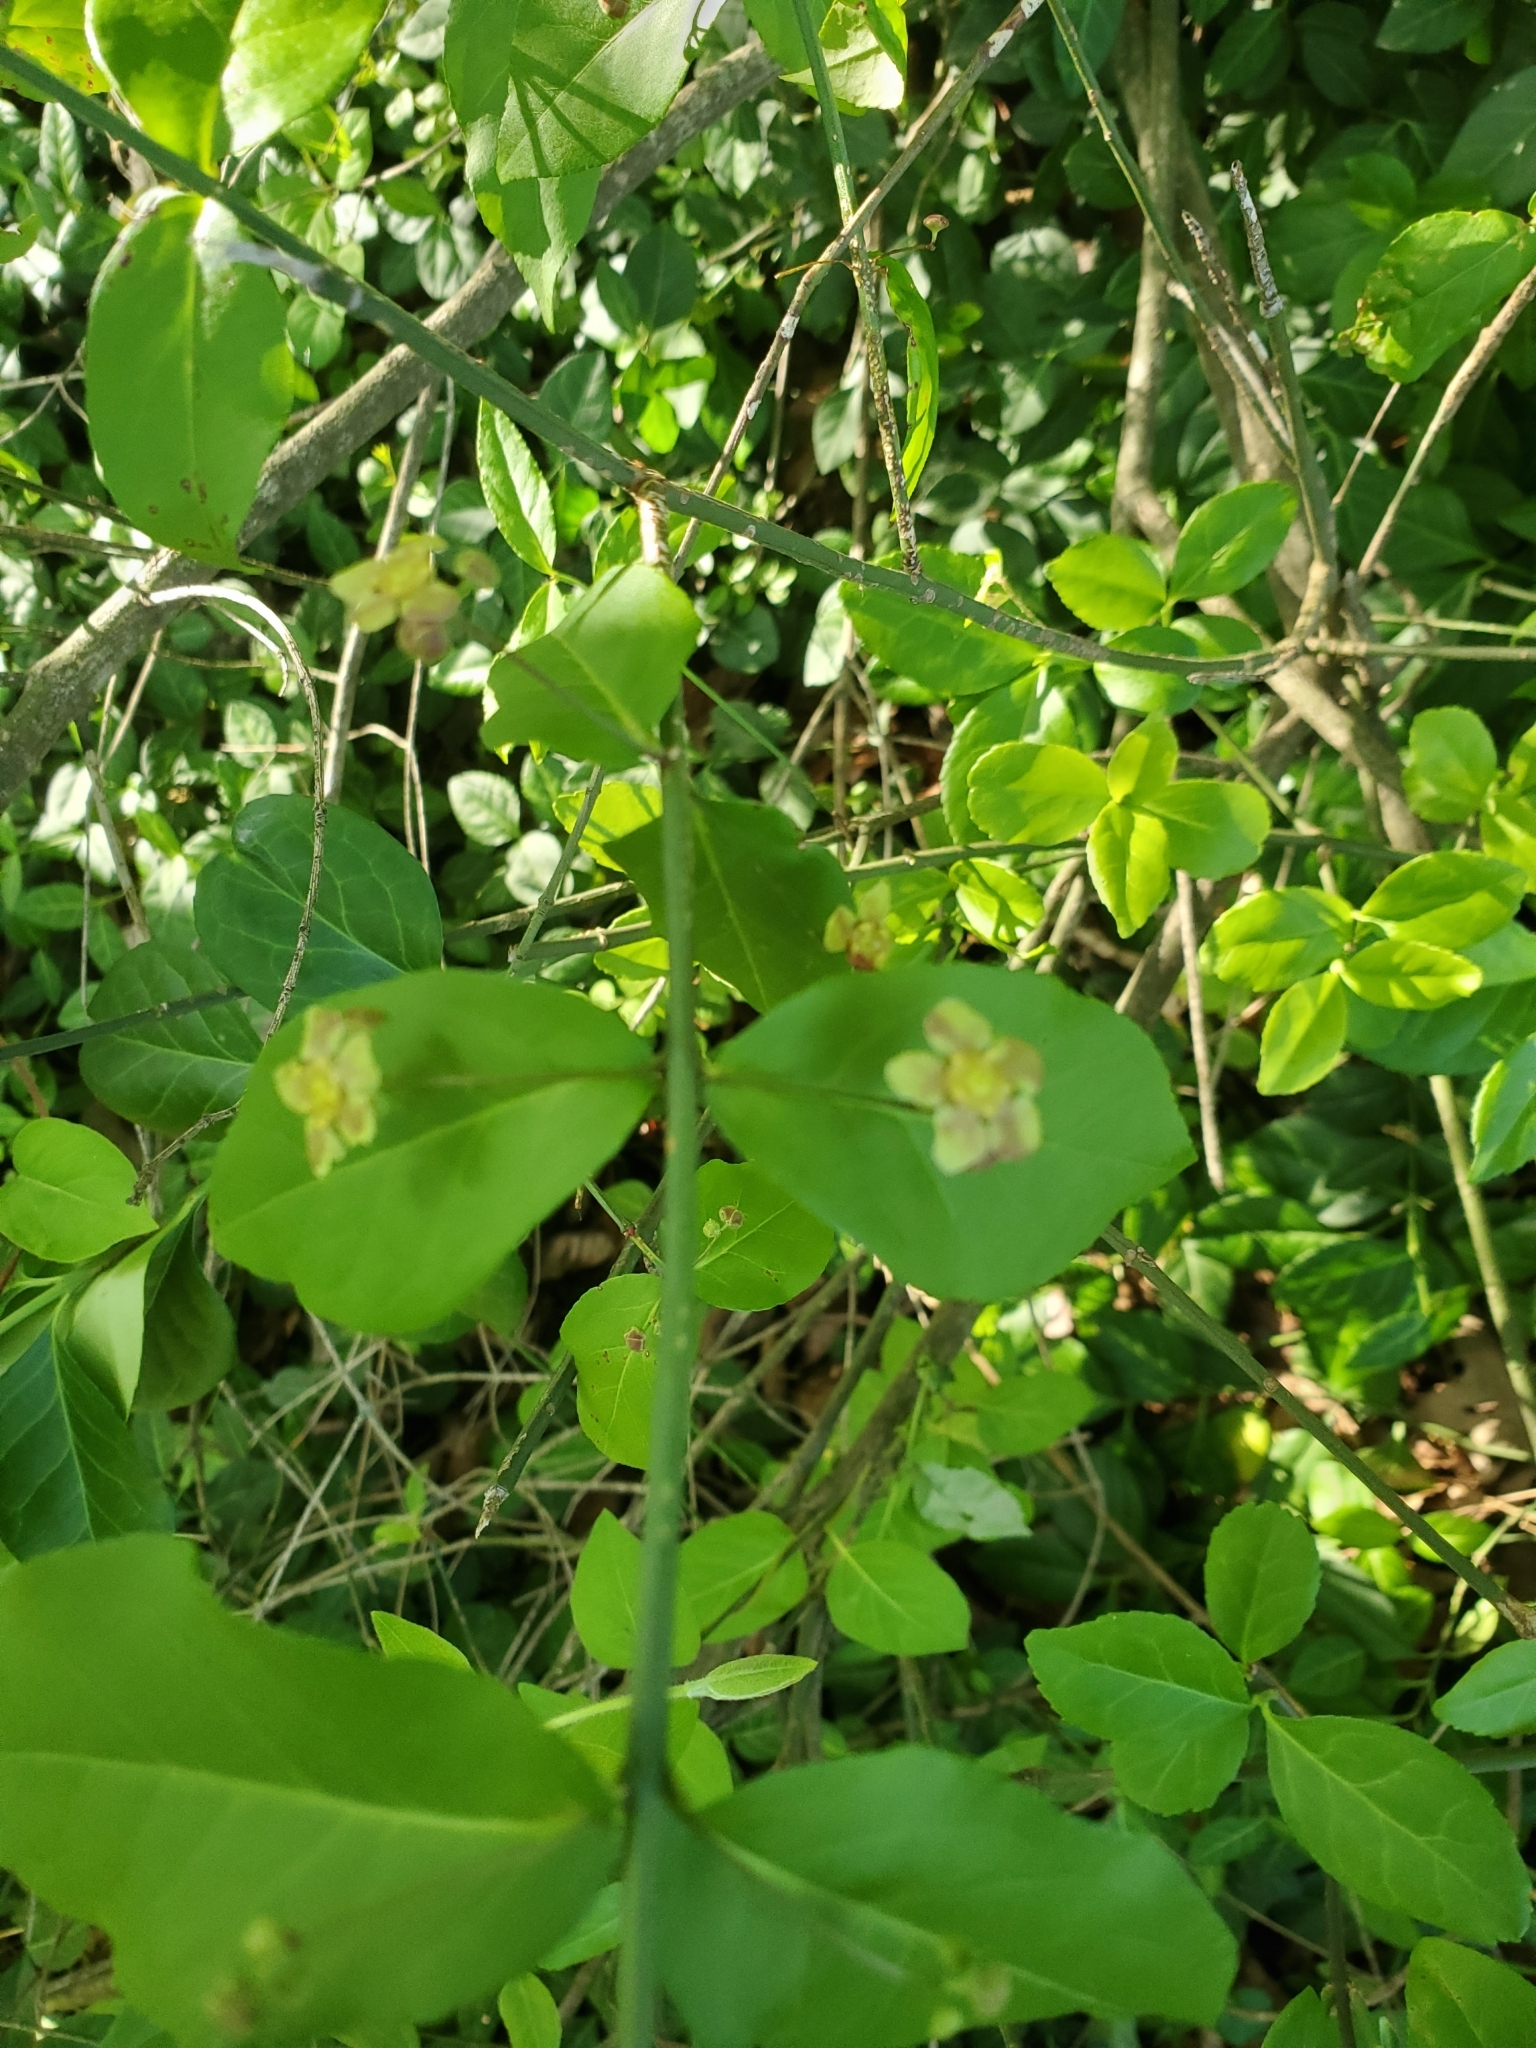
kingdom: Plantae
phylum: Tracheophyta
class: Magnoliopsida
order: Celastrales
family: Celastraceae
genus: Euonymus
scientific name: Euonymus americanus
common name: Bursting-heart
